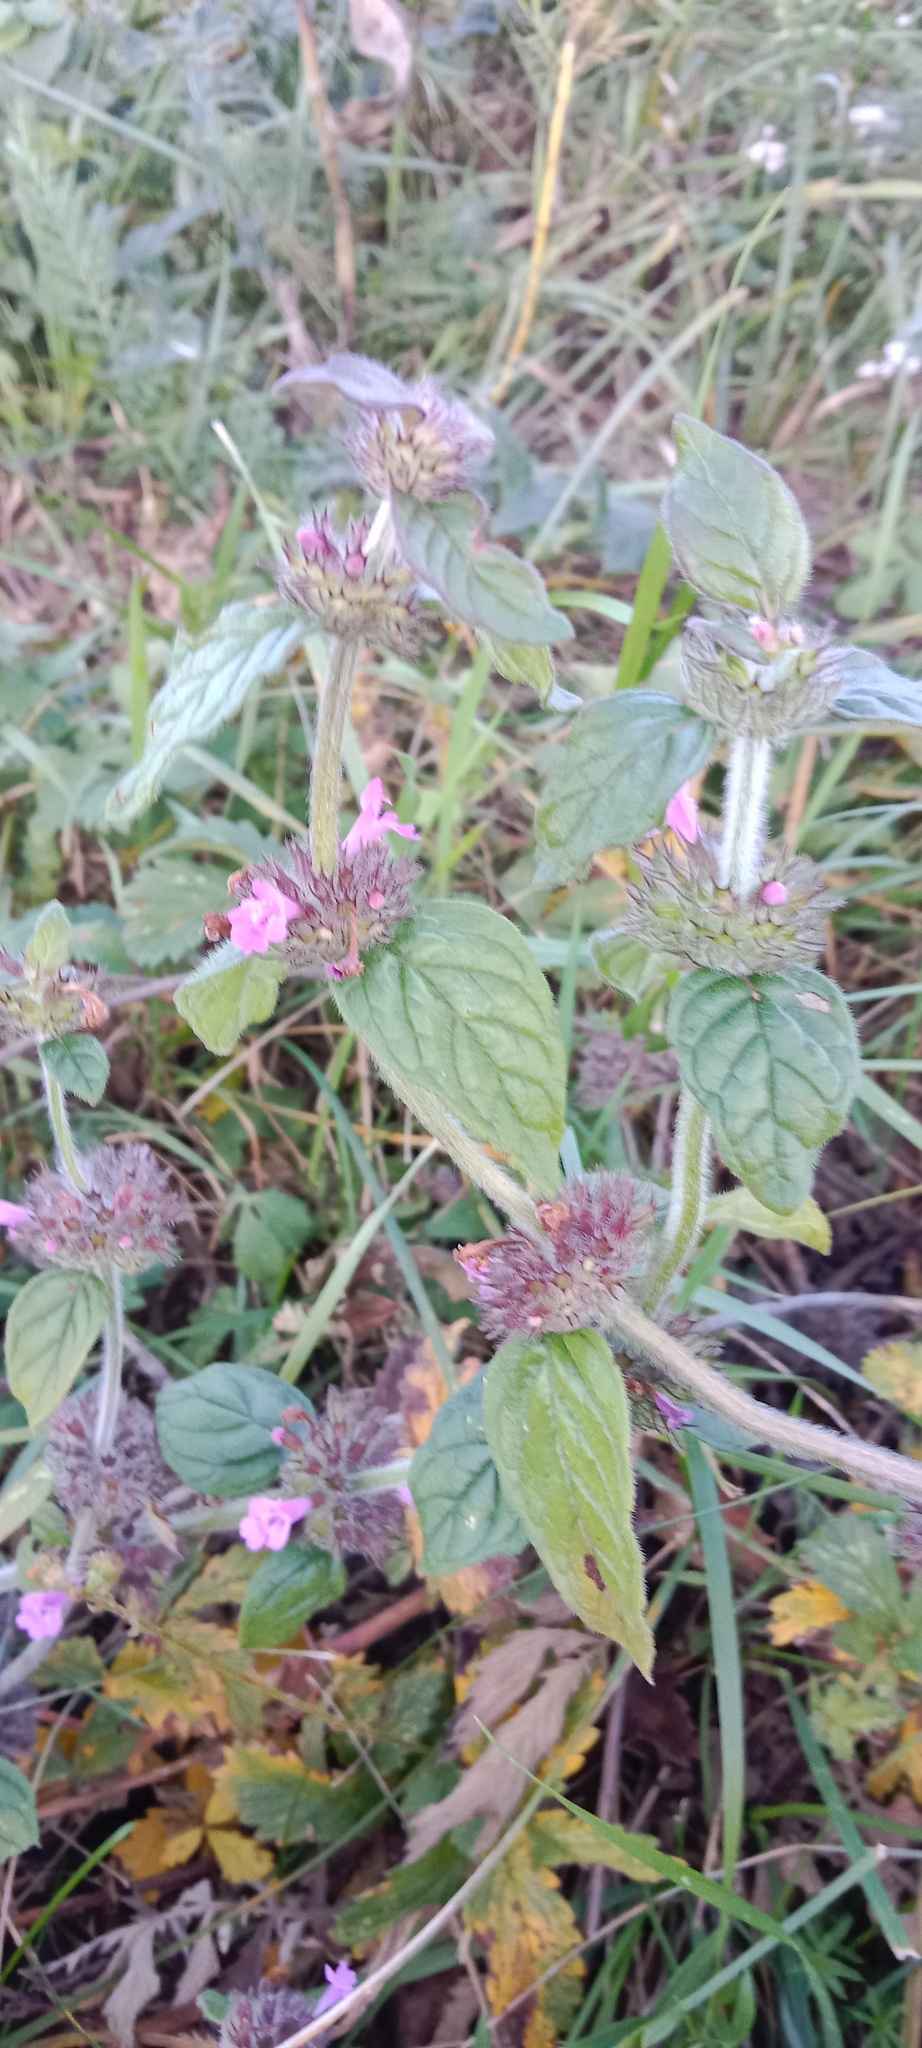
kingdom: Plantae
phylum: Tracheophyta
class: Magnoliopsida
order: Lamiales
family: Lamiaceae
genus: Clinopodium
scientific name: Clinopodium vulgare
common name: Wild basil
